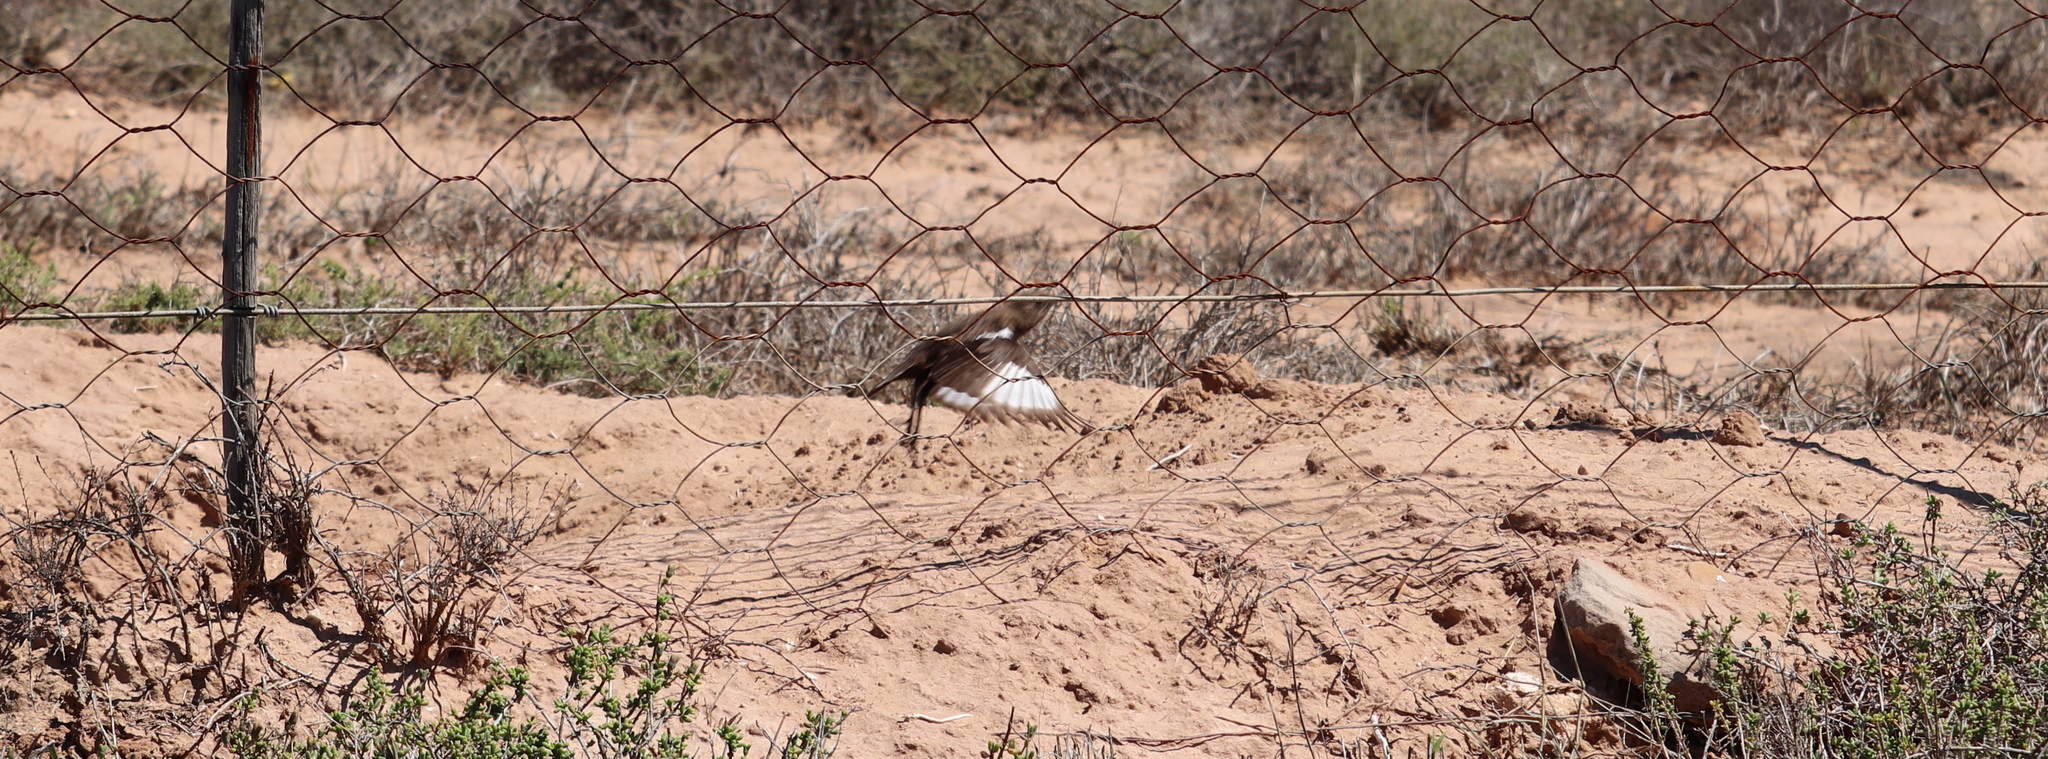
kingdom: Animalia
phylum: Chordata
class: Aves
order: Passeriformes
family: Muscicapidae
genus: Myrmecocichla
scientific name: Myrmecocichla formicivora
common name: Ant-eating chat
